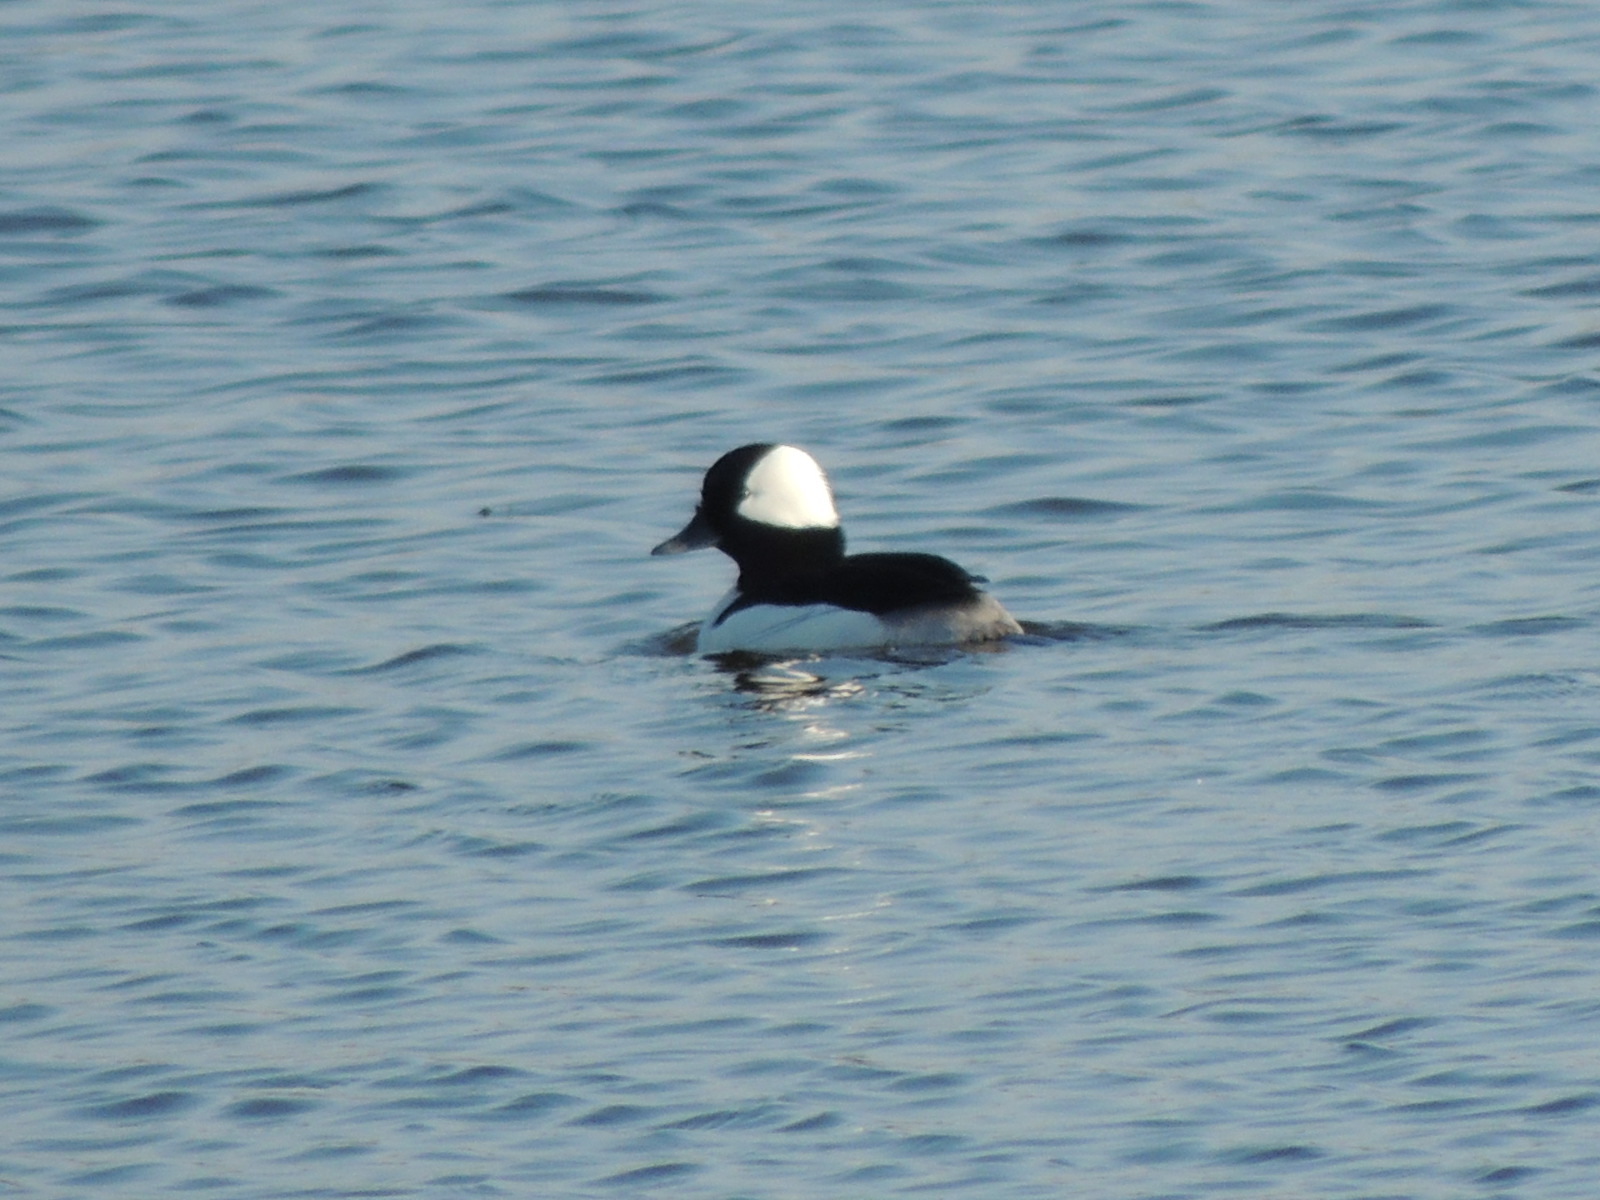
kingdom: Animalia
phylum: Chordata
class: Aves
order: Anseriformes
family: Anatidae
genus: Bucephala
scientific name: Bucephala albeola
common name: Bufflehead
